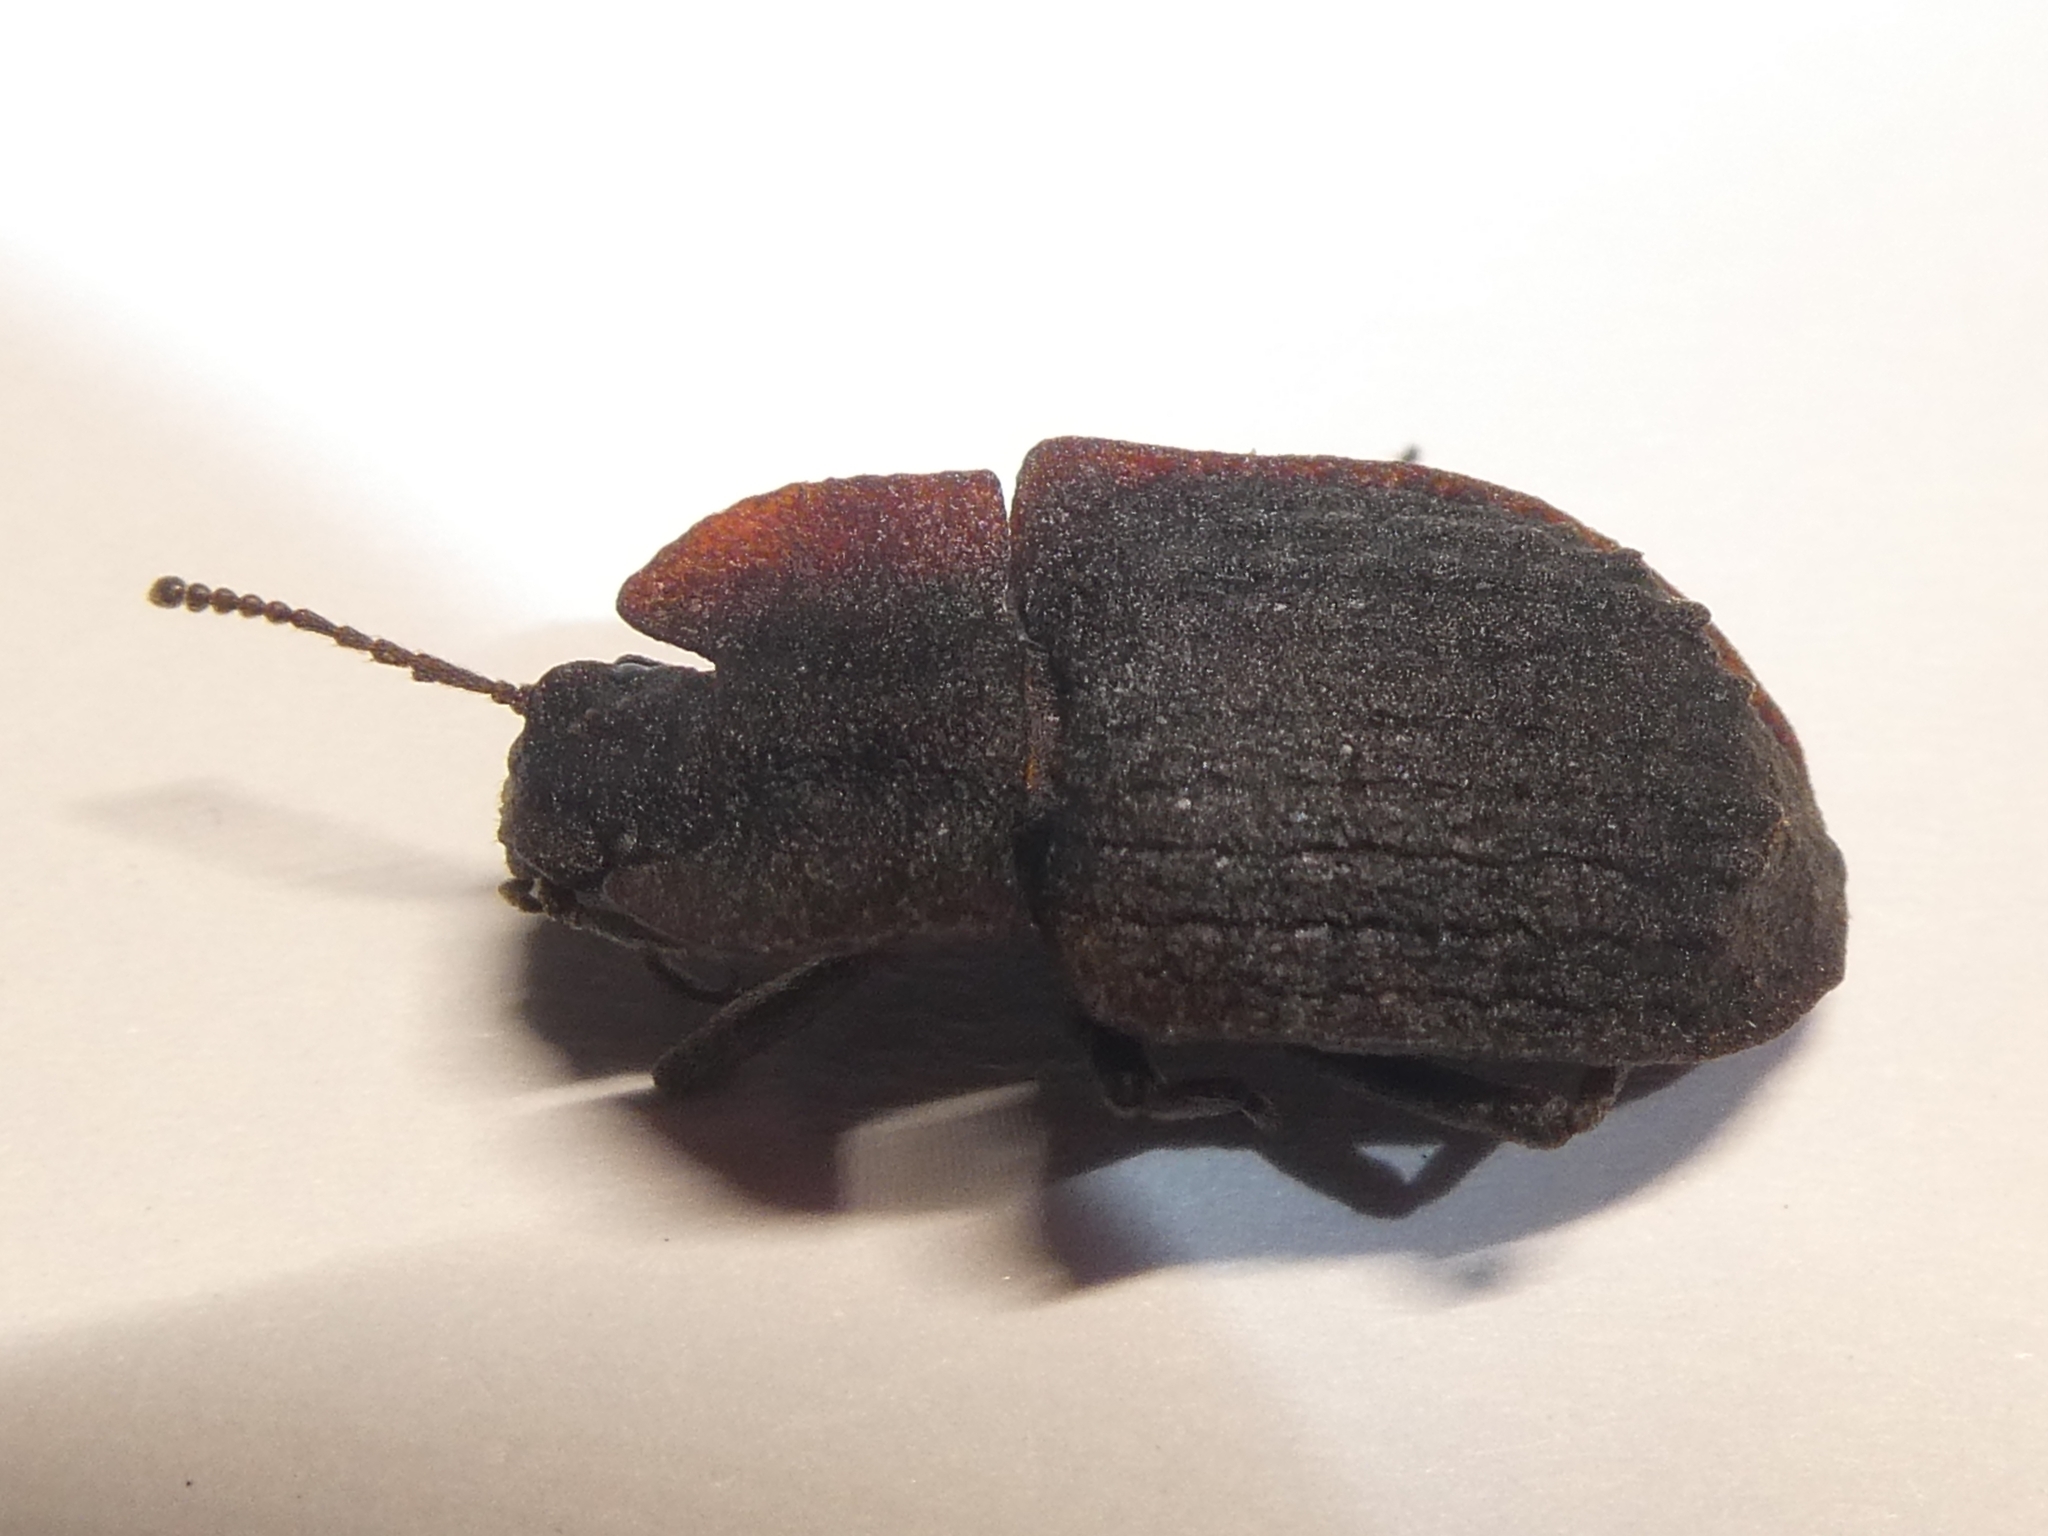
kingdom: Animalia
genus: Mitua
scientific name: Mitua
